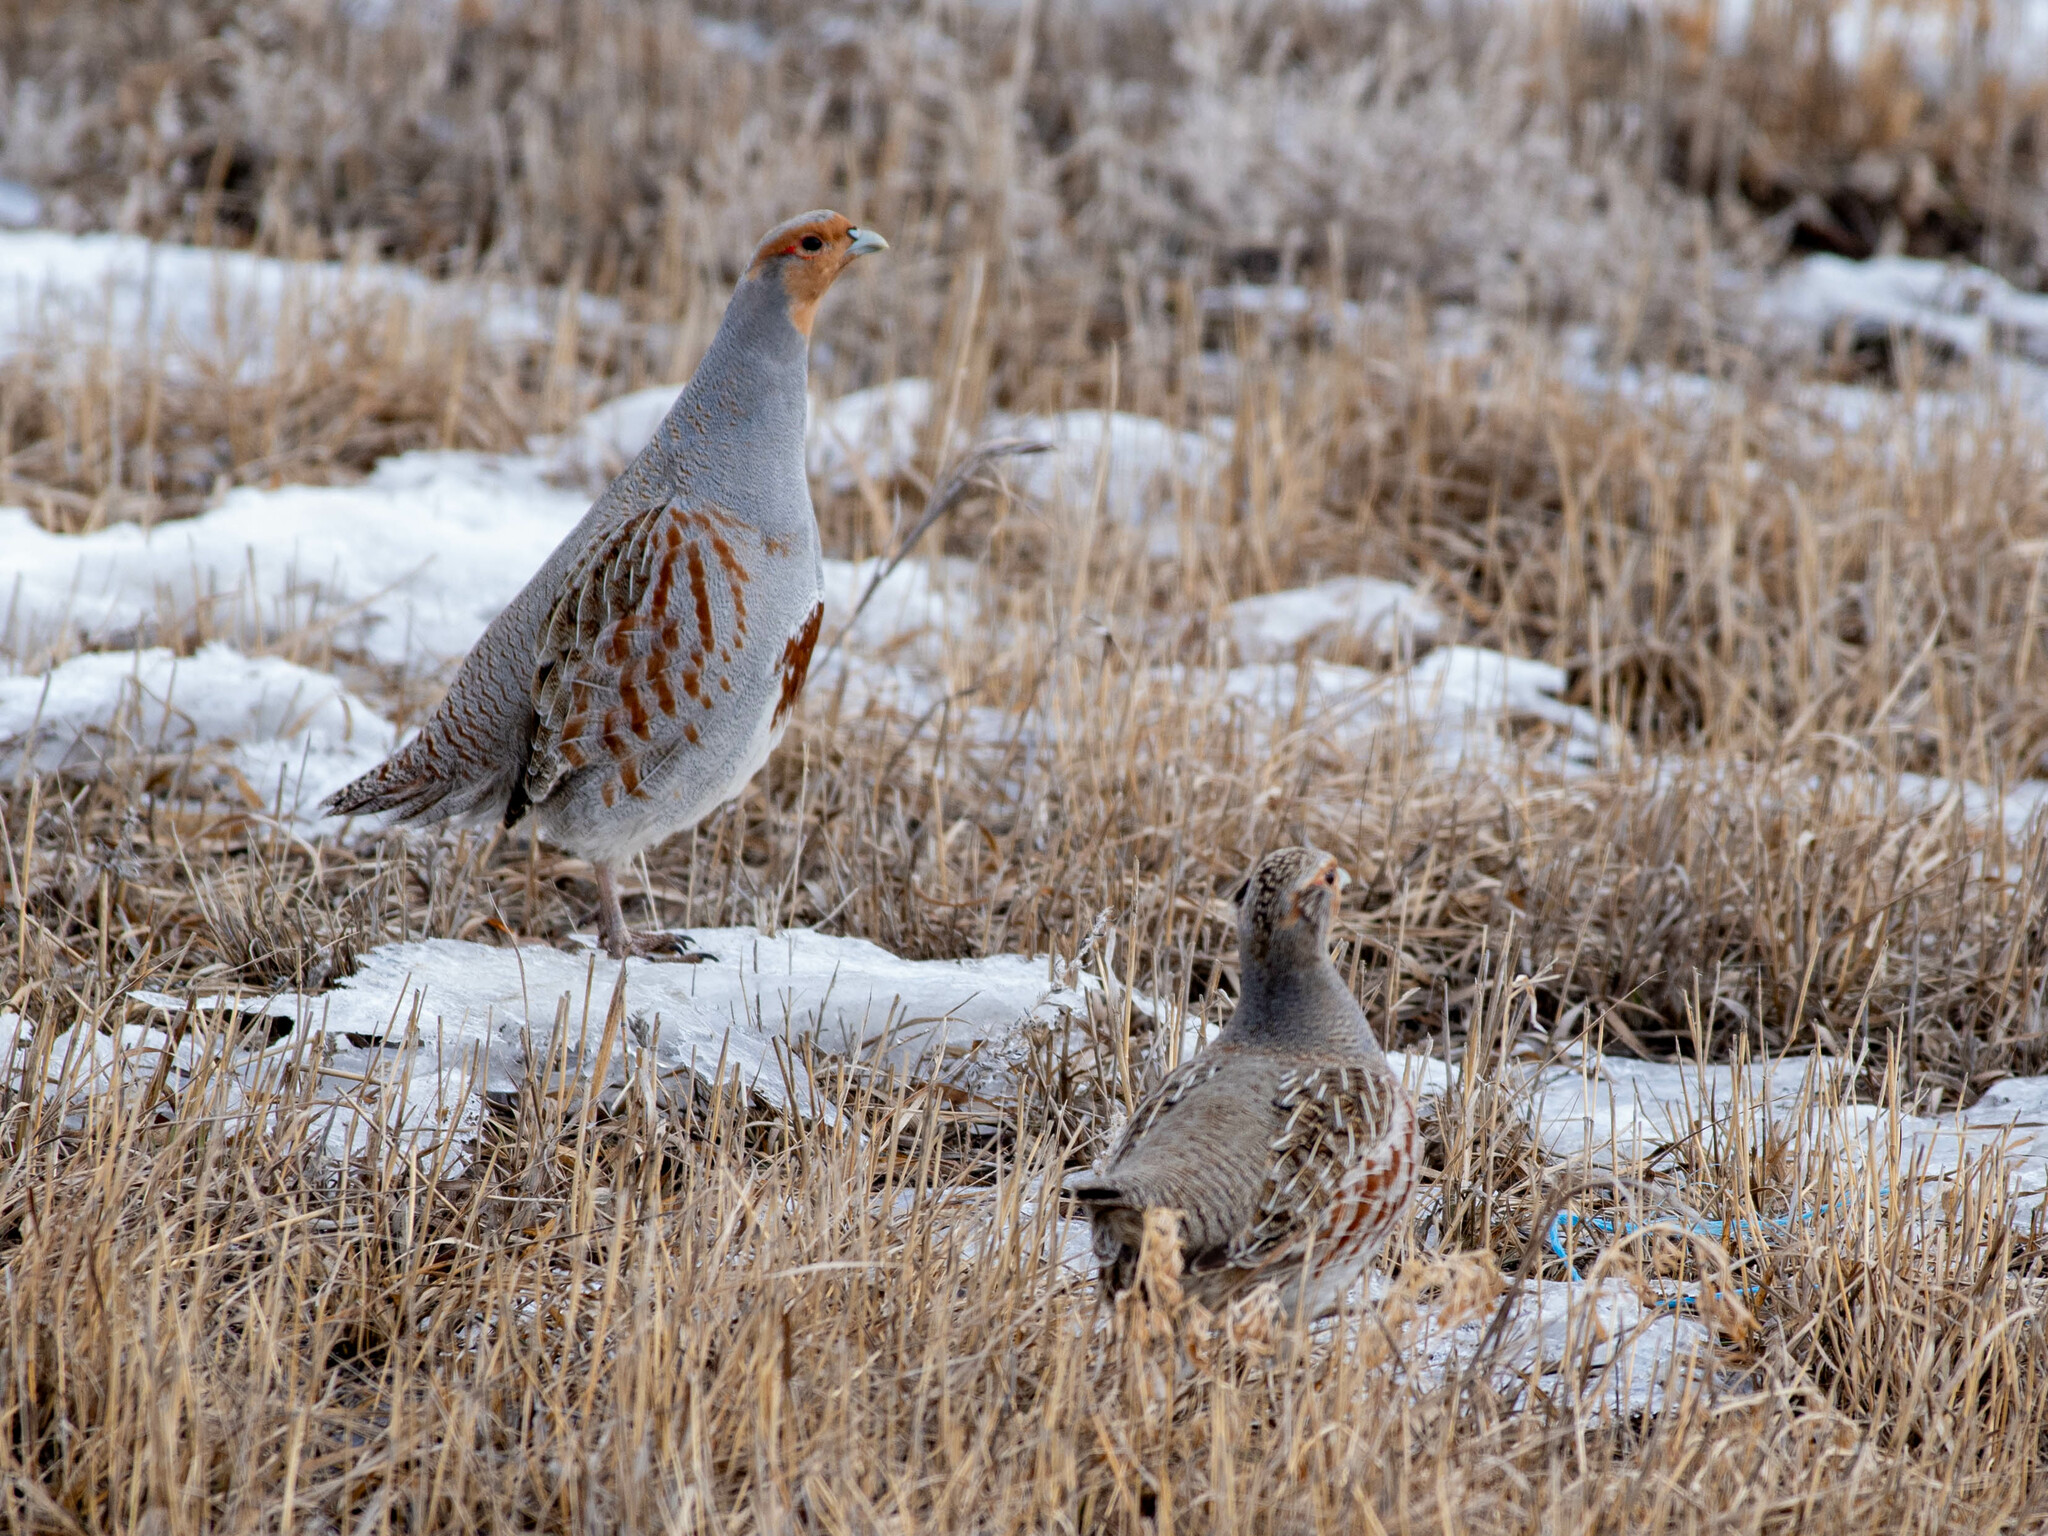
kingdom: Animalia
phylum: Chordata
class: Aves
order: Galliformes
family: Phasianidae
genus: Perdix
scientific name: Perdix perdix
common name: Grey partridge
